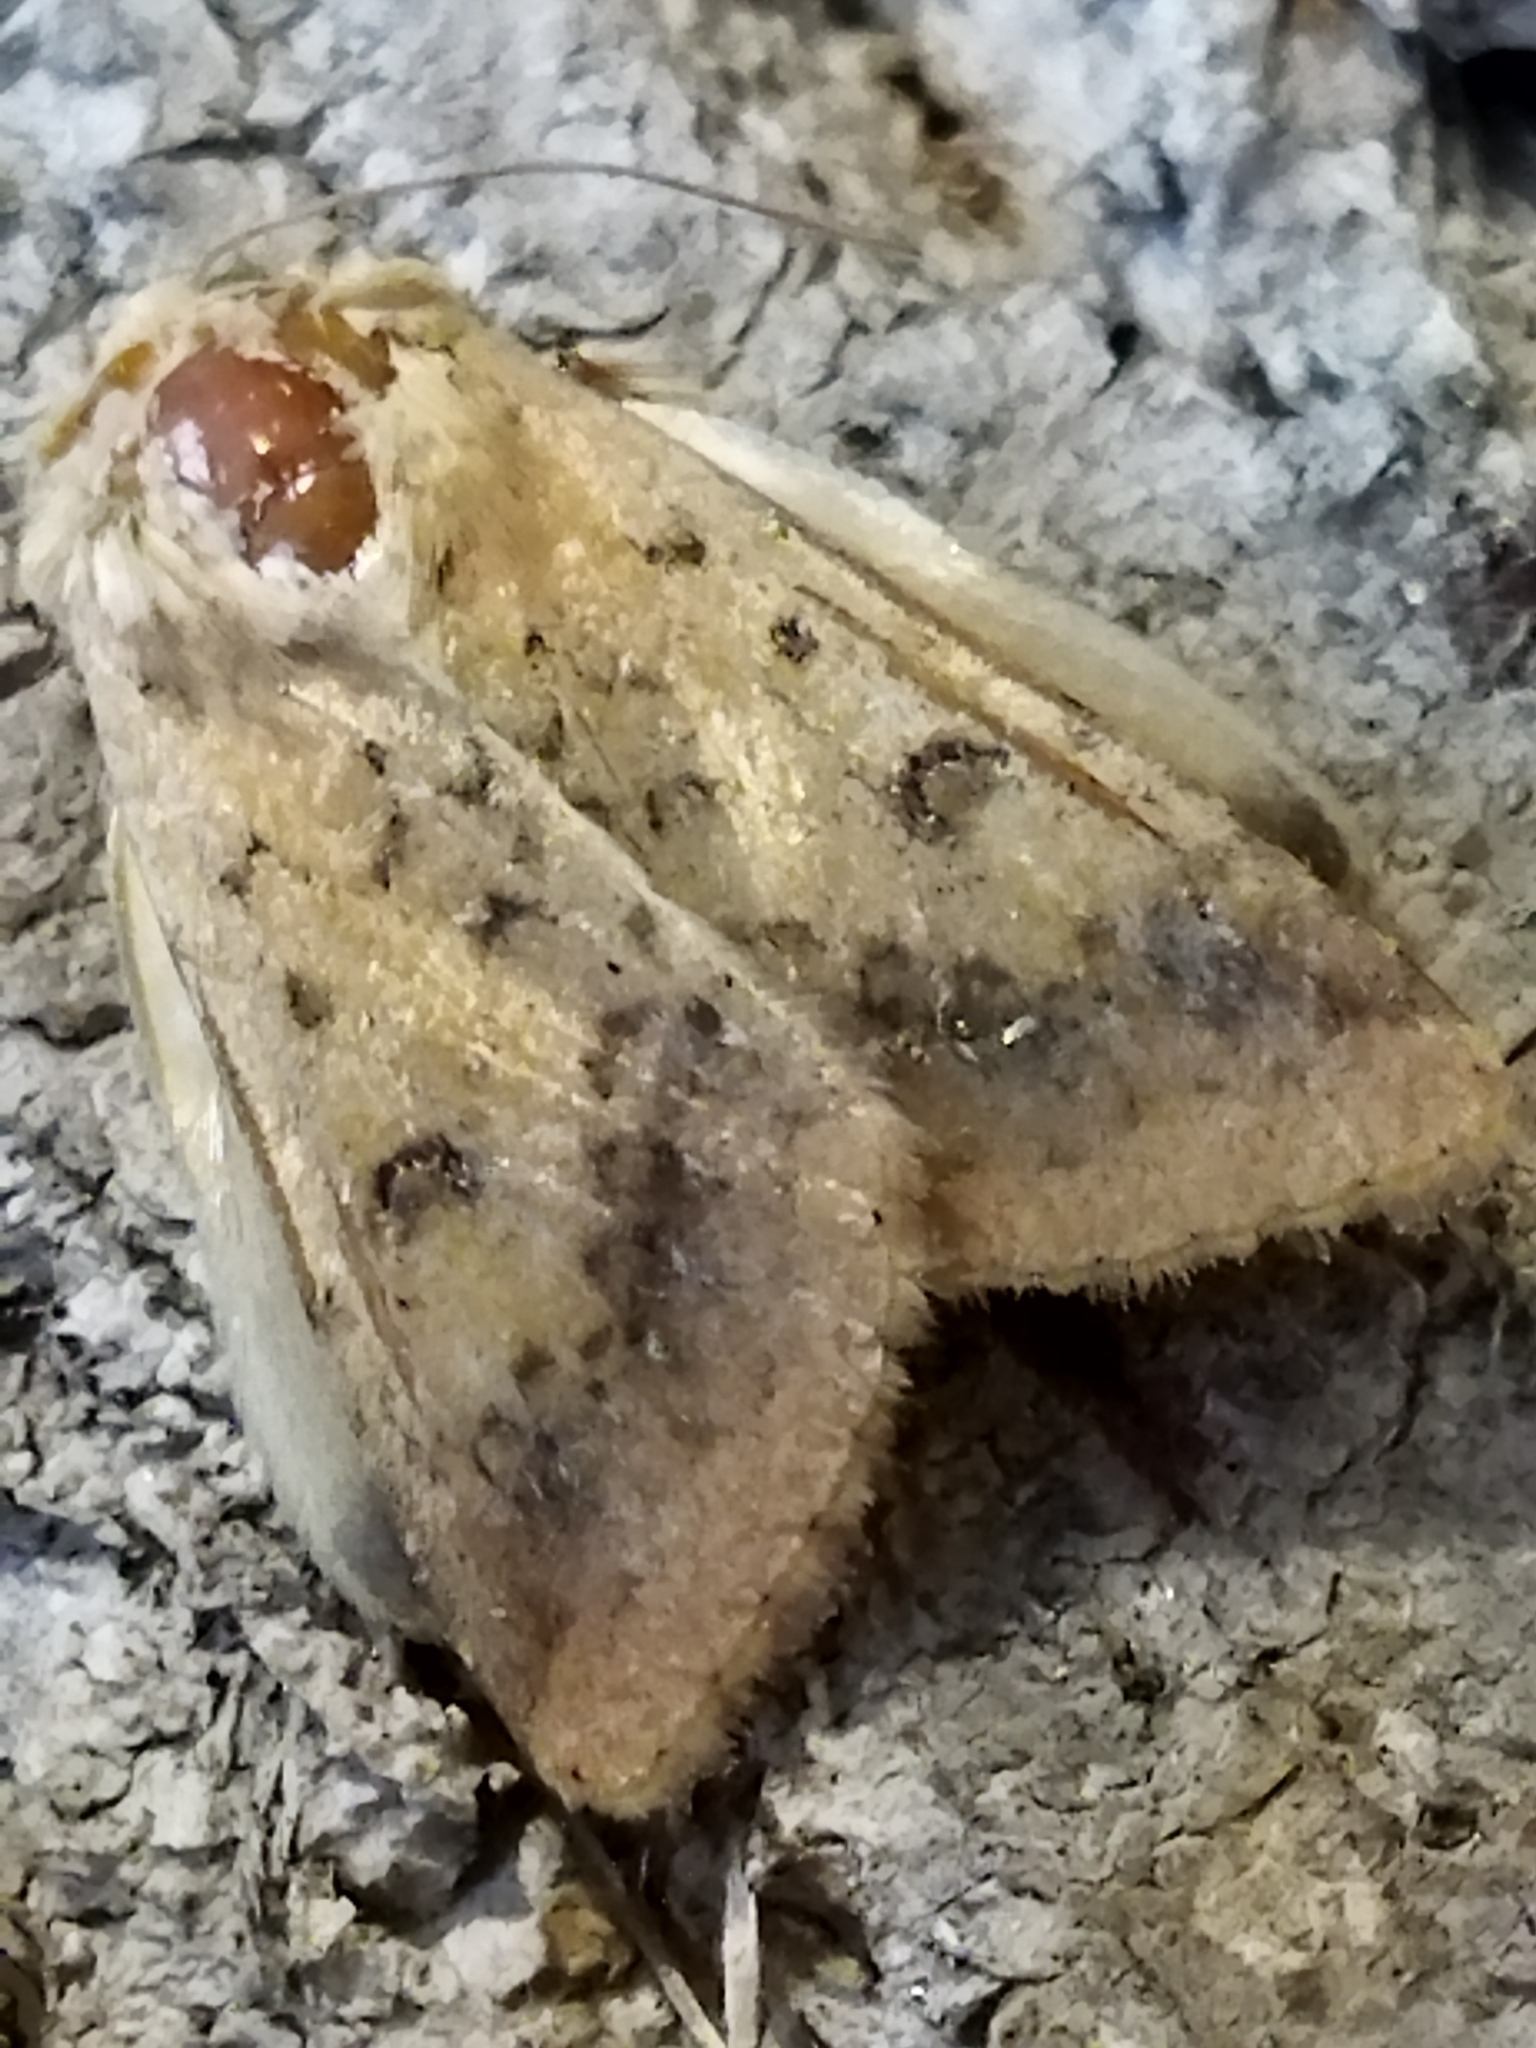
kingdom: Animalia
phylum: Arthropoda
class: Insecta
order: Lepidoptera
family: Noctuidae
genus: Helicoverpa
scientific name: Helicoverpa armigera
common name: Cotton bollworm
